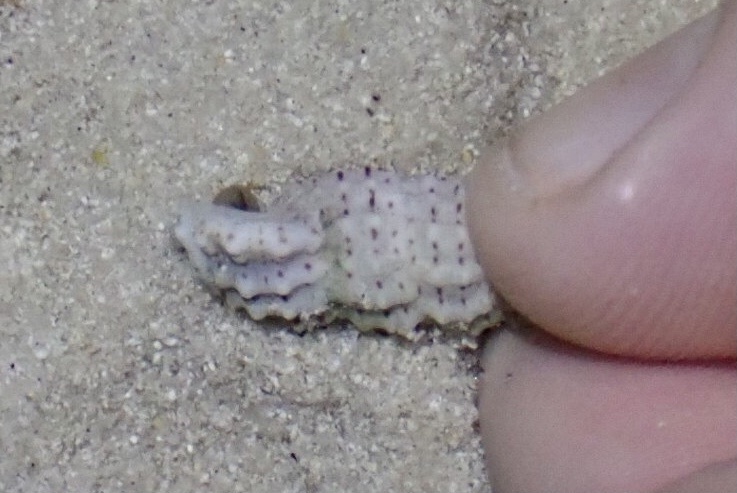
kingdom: Animalia
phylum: Mollusca
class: Gastropoda
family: Cerithiidae
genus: Cerithium
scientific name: Cerithium muscarum
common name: Fly-specked cerith
